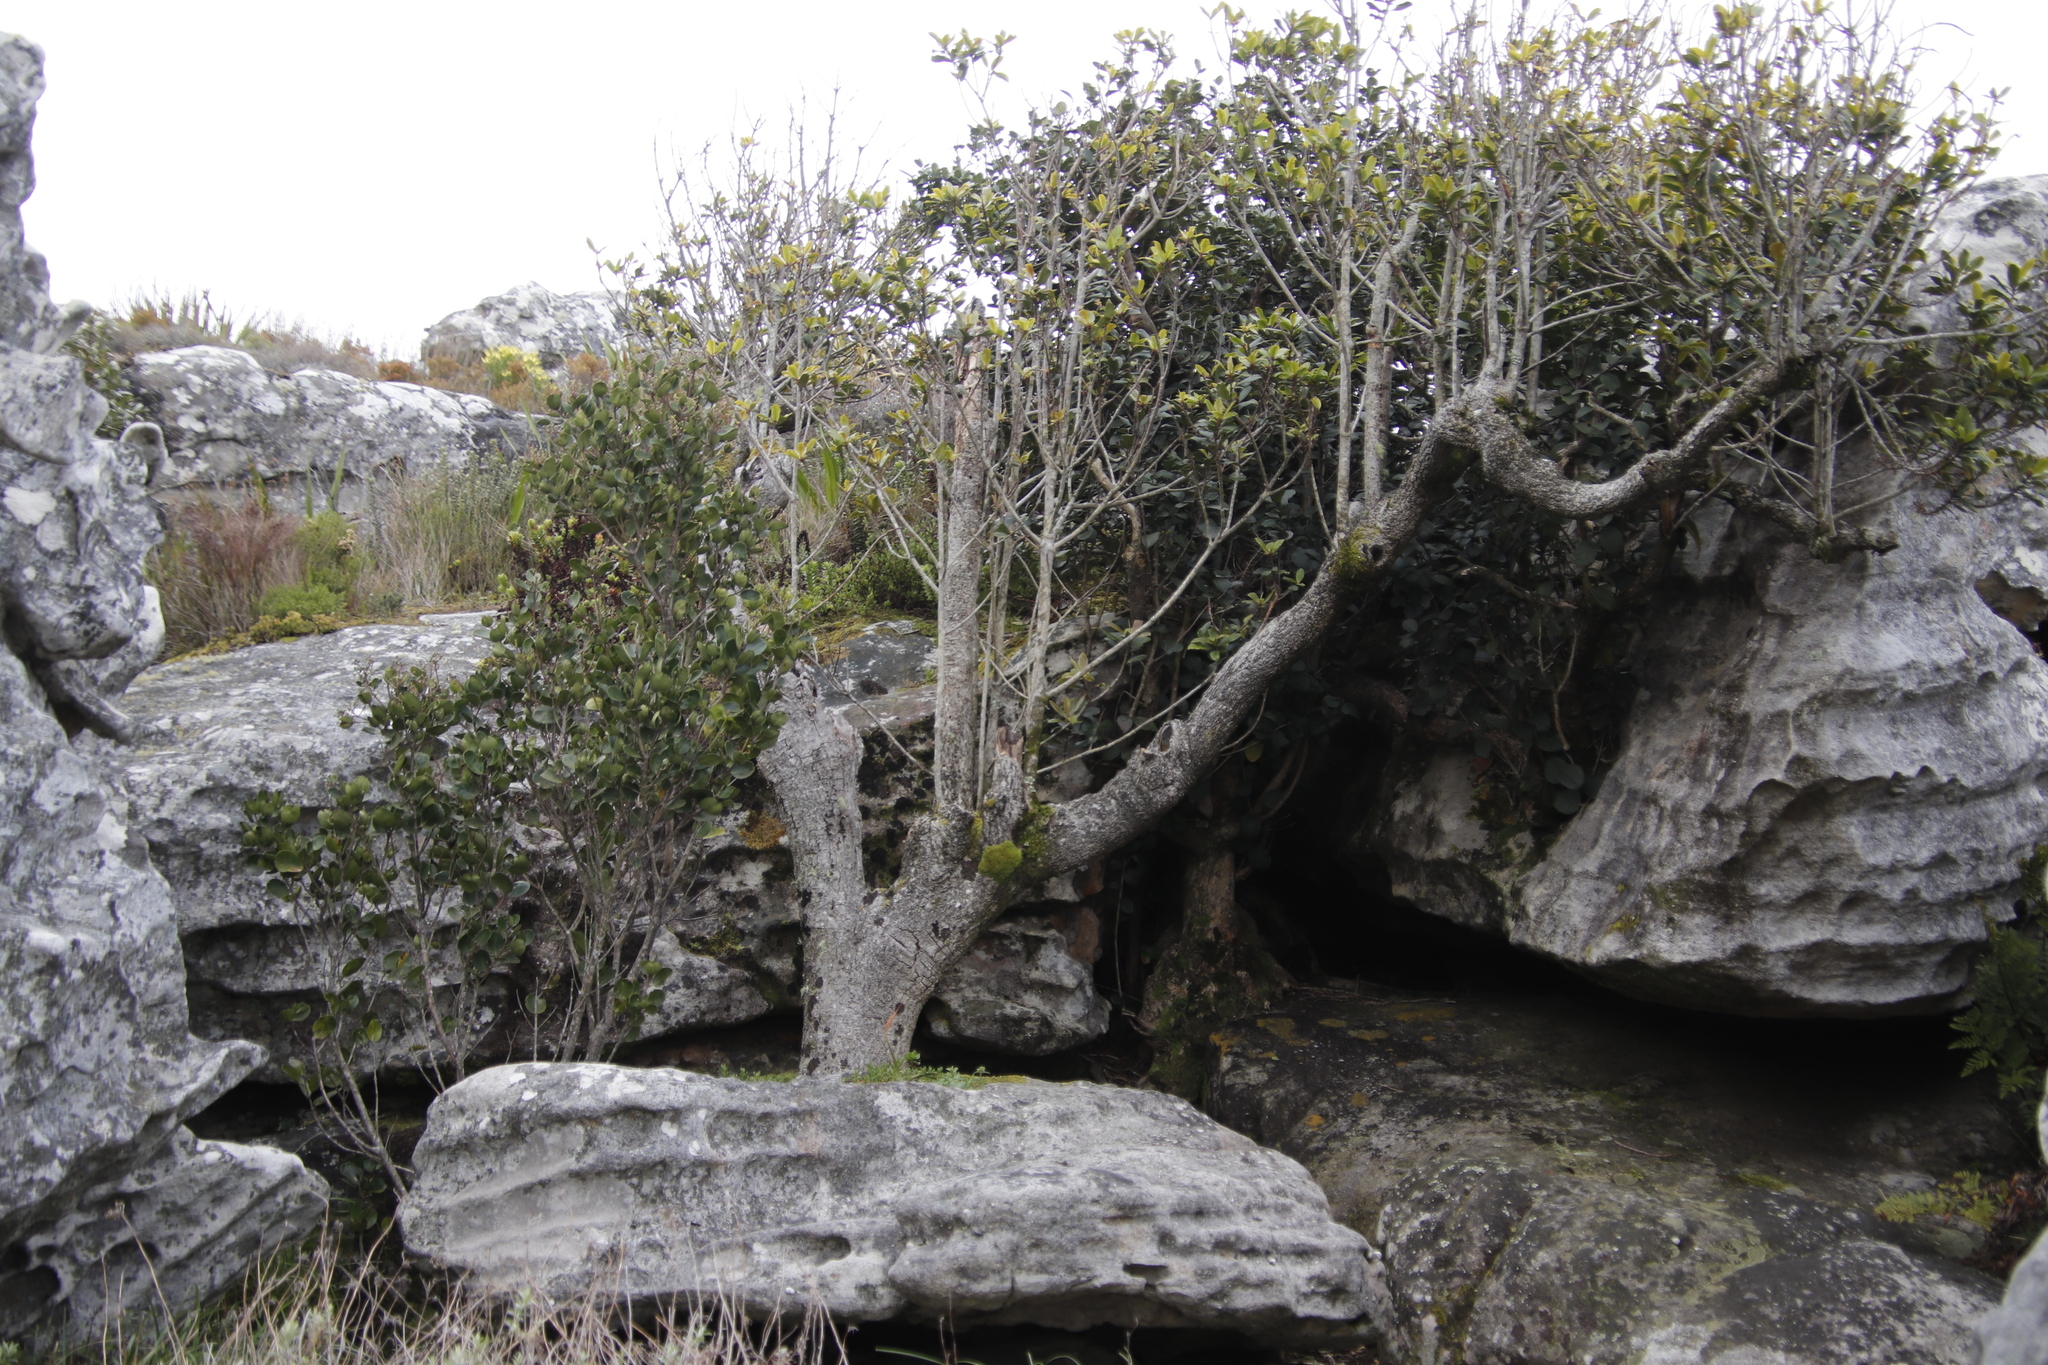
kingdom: Plantae
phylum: Tracheophyta
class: Magnoliopsida
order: Ericales
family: Primulaceae
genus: Myrsine
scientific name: Myrsine melanophloeos
